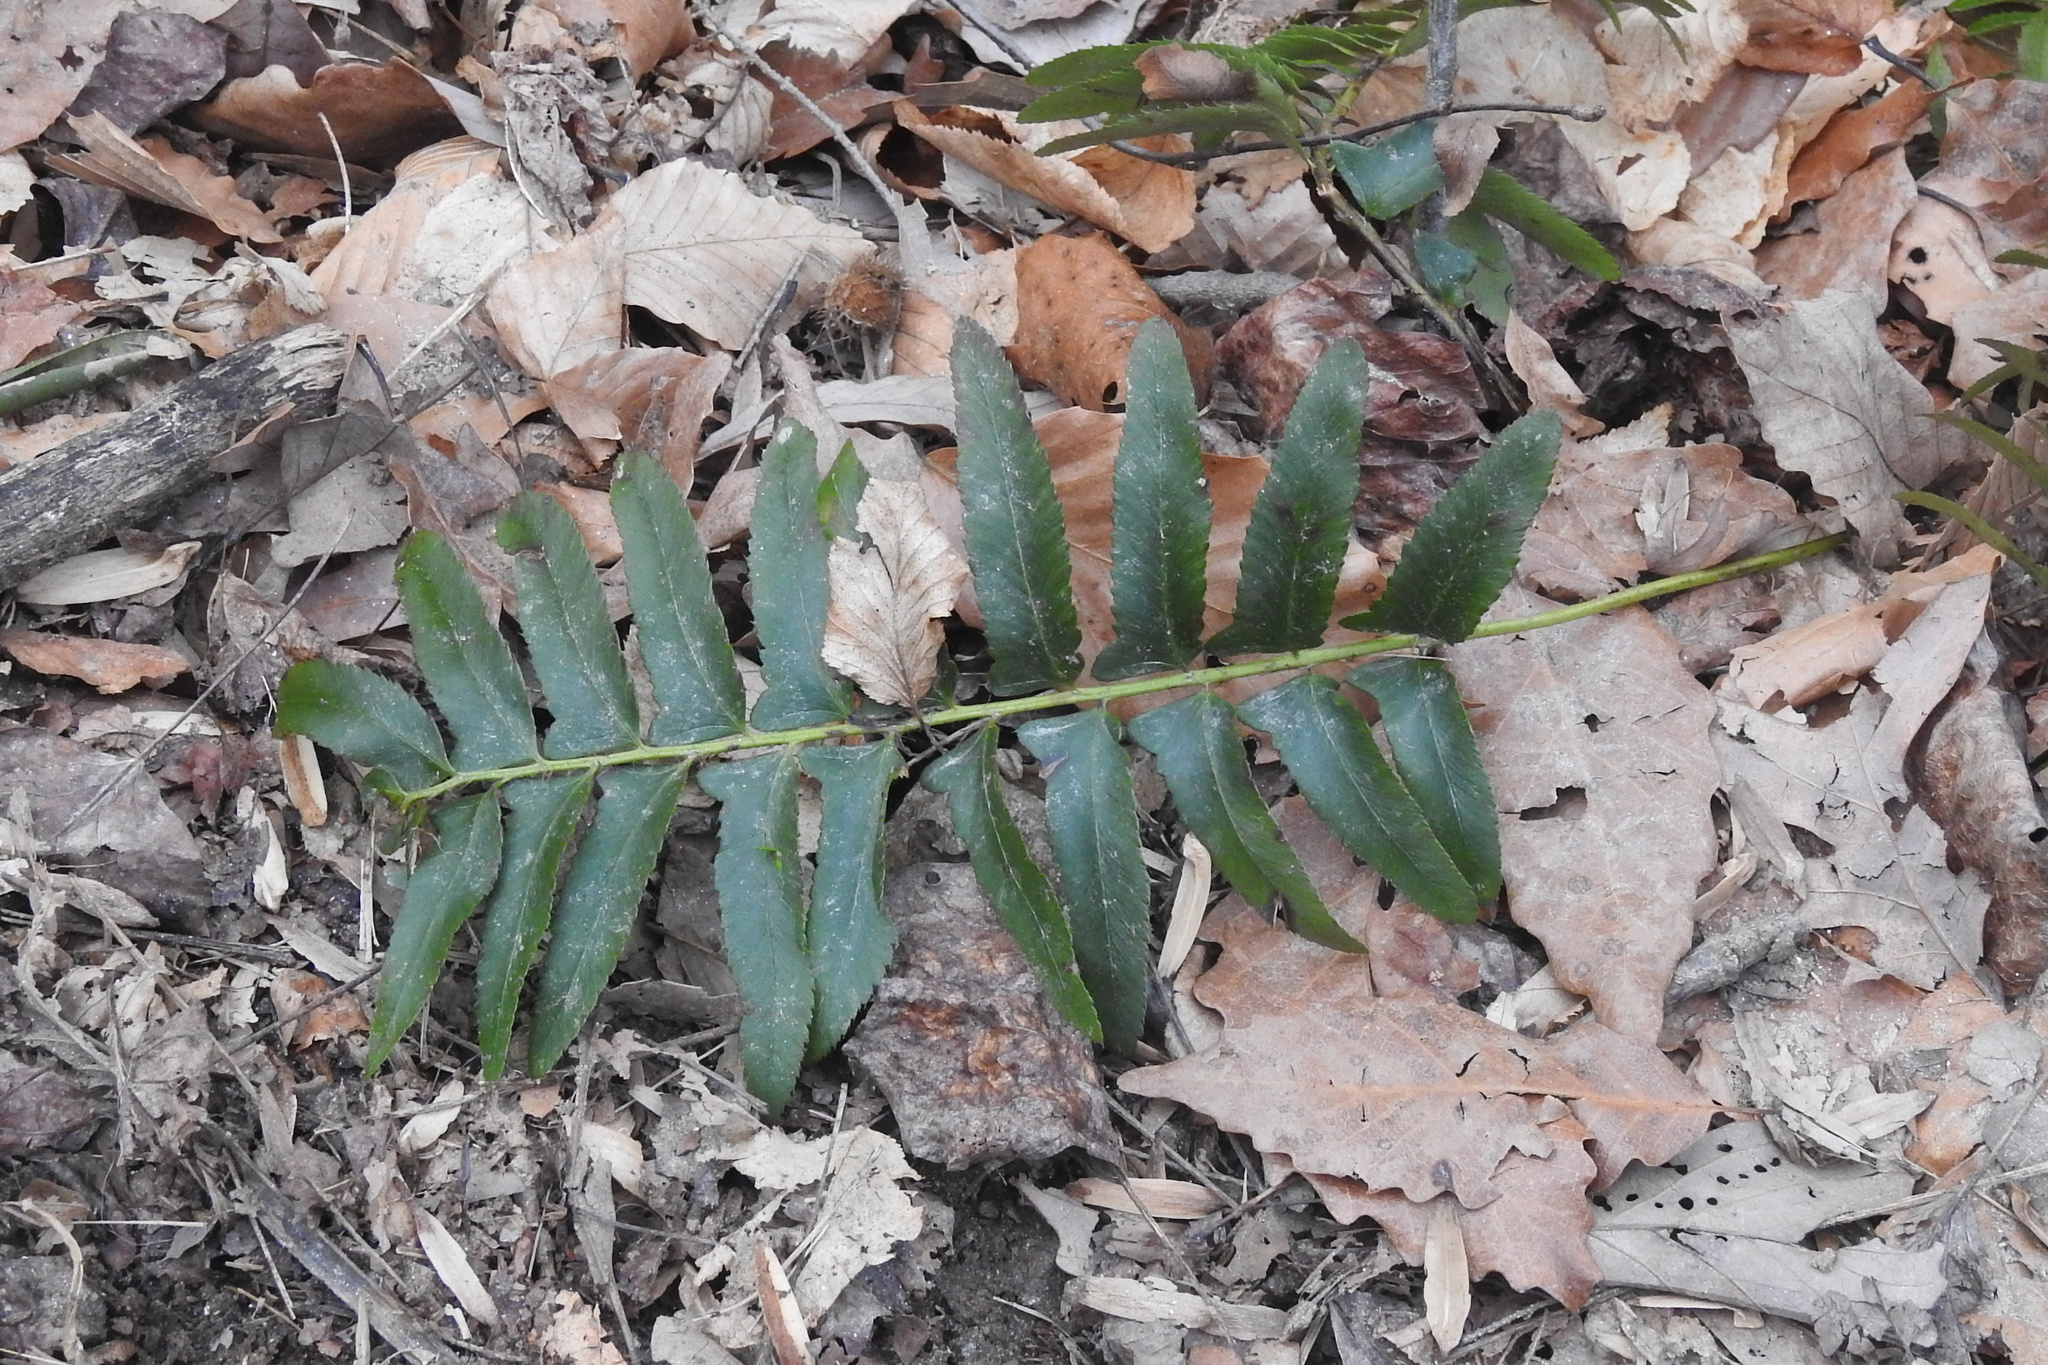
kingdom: Plantae
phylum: Tracheophyta
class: Polypodiopsida
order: Polypodiales
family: Dryopteridaceae
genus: Polystichum
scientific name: Polystichum acrostichoides
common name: Christmas fern
